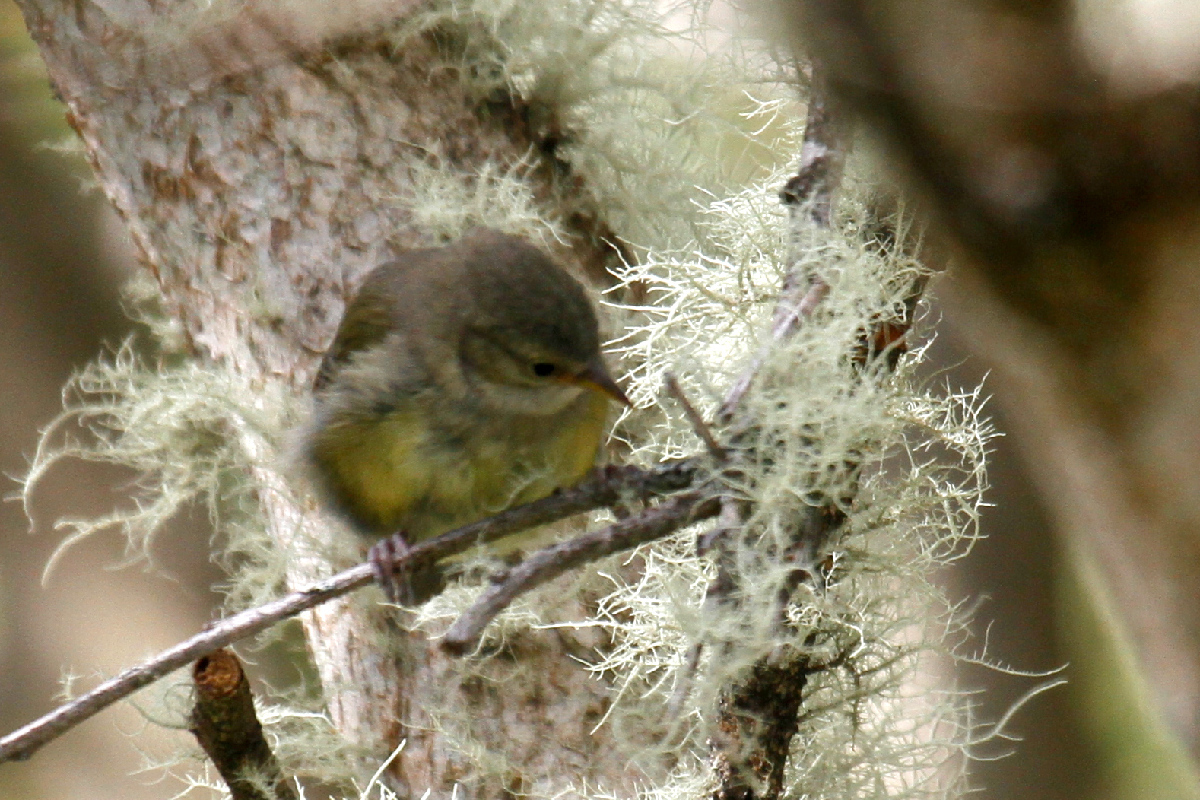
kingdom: Animalia
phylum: Chordata
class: Aves
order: Passeriformes
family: Fringillidae
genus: Loxops
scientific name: Loxops mana
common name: Hawaii creeper
